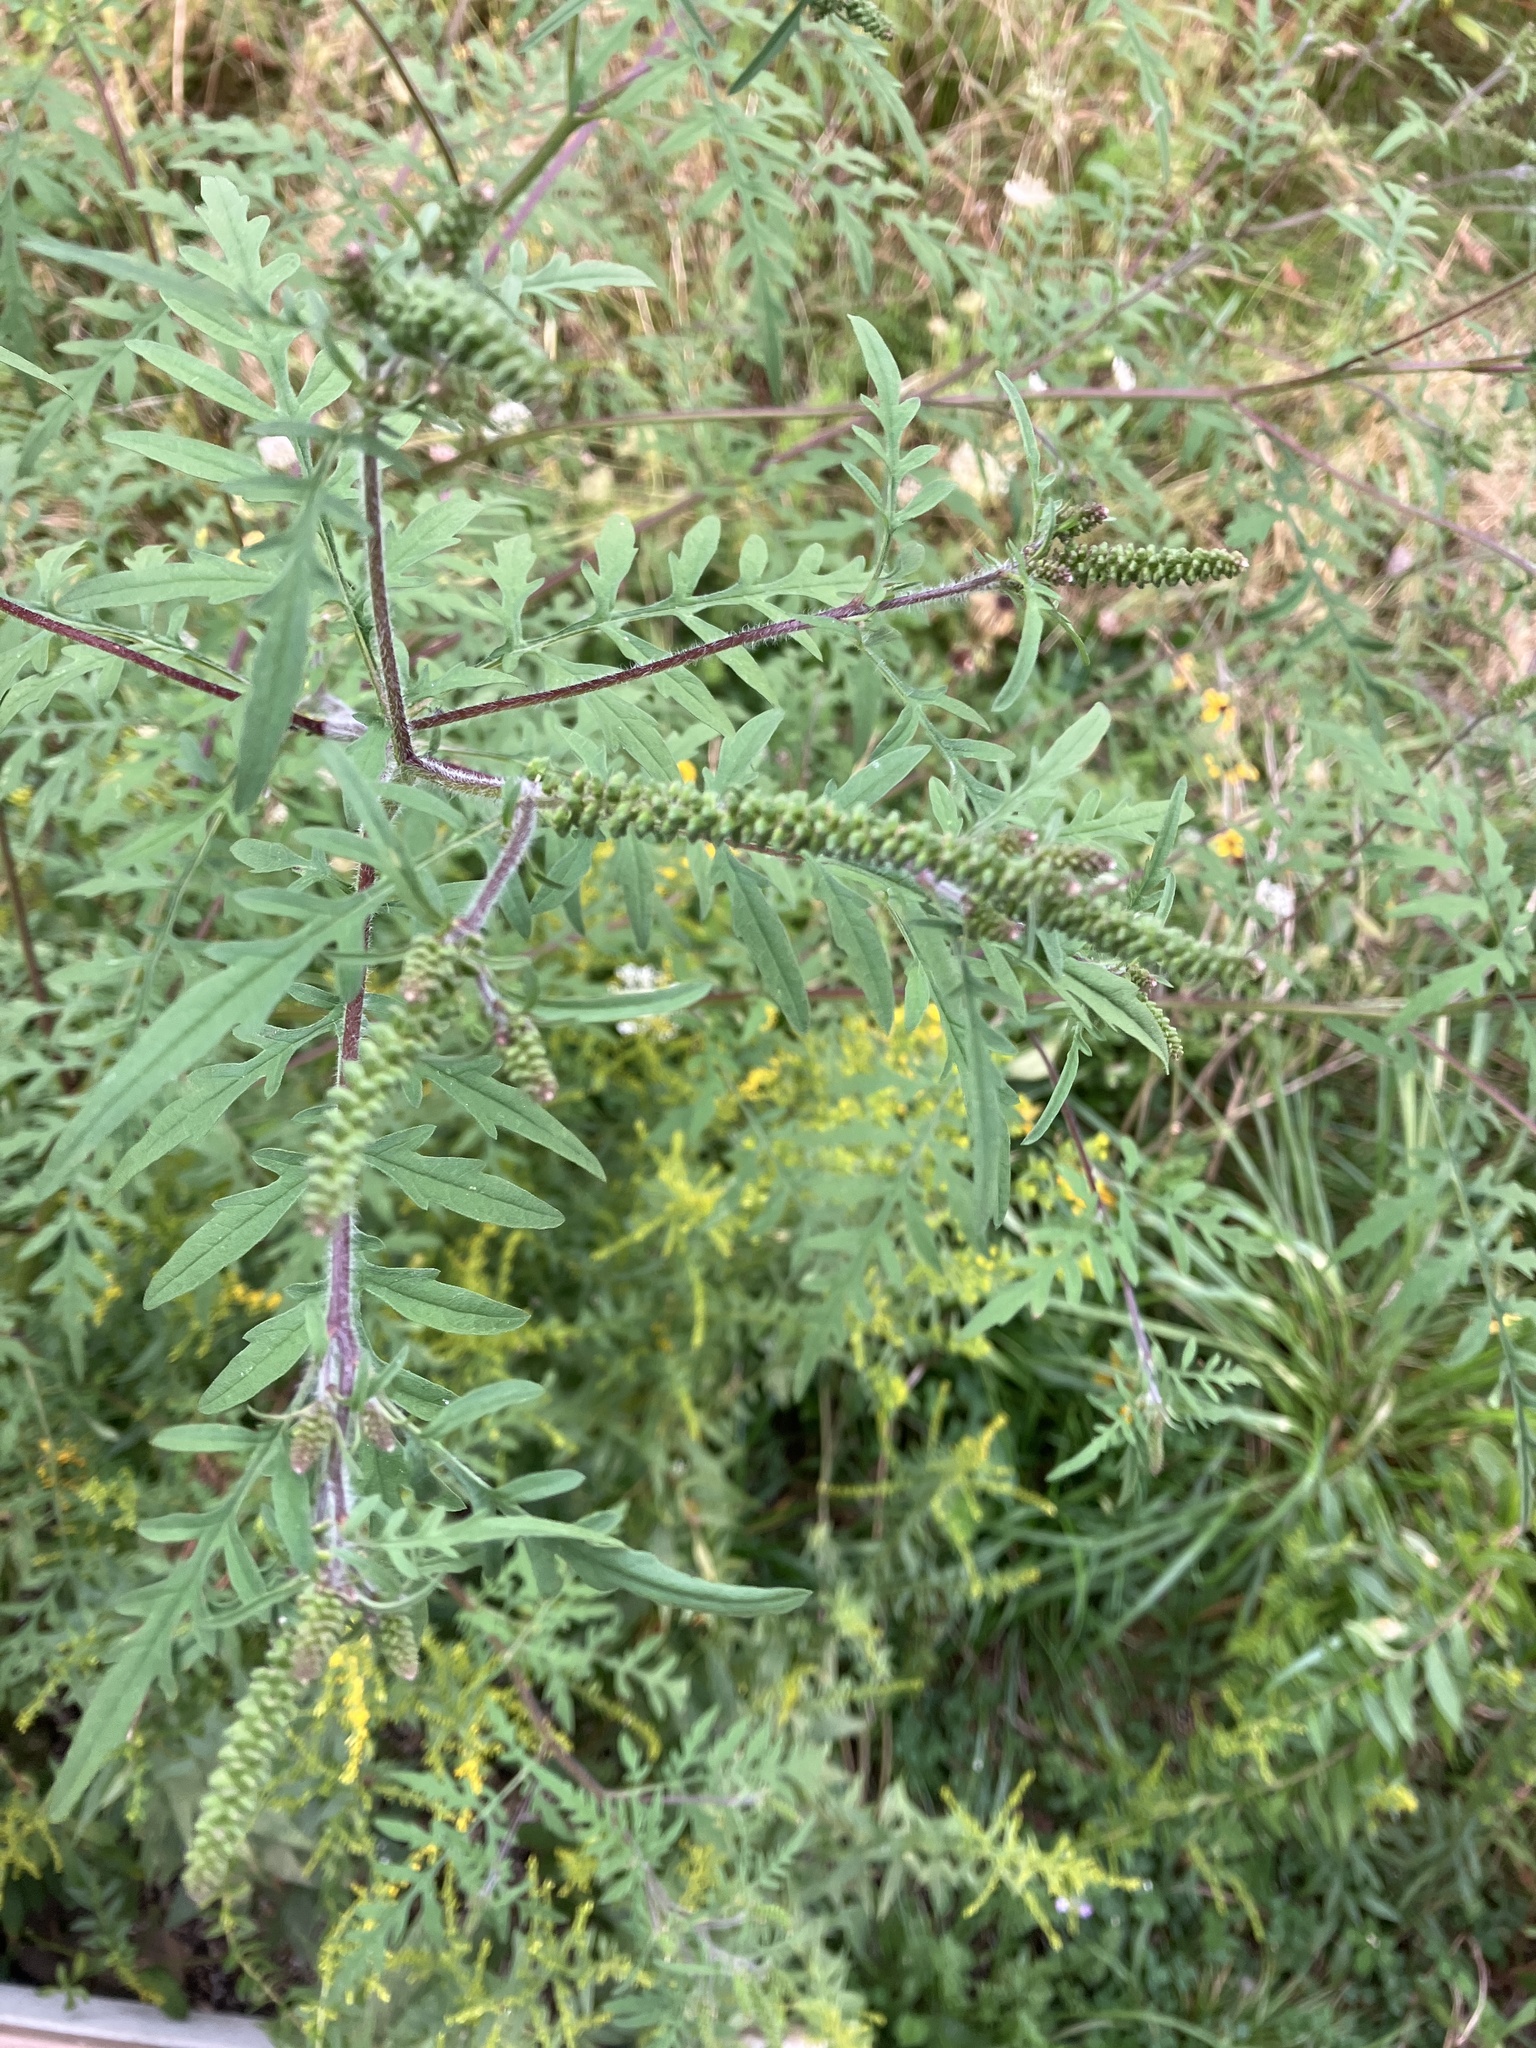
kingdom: Plantae
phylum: Tracheophyta
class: Magnoliopsida
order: Asterales
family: Asteraceae
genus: Ambrosia
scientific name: Ambrosia artemisiifolia
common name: Annual ragweed
